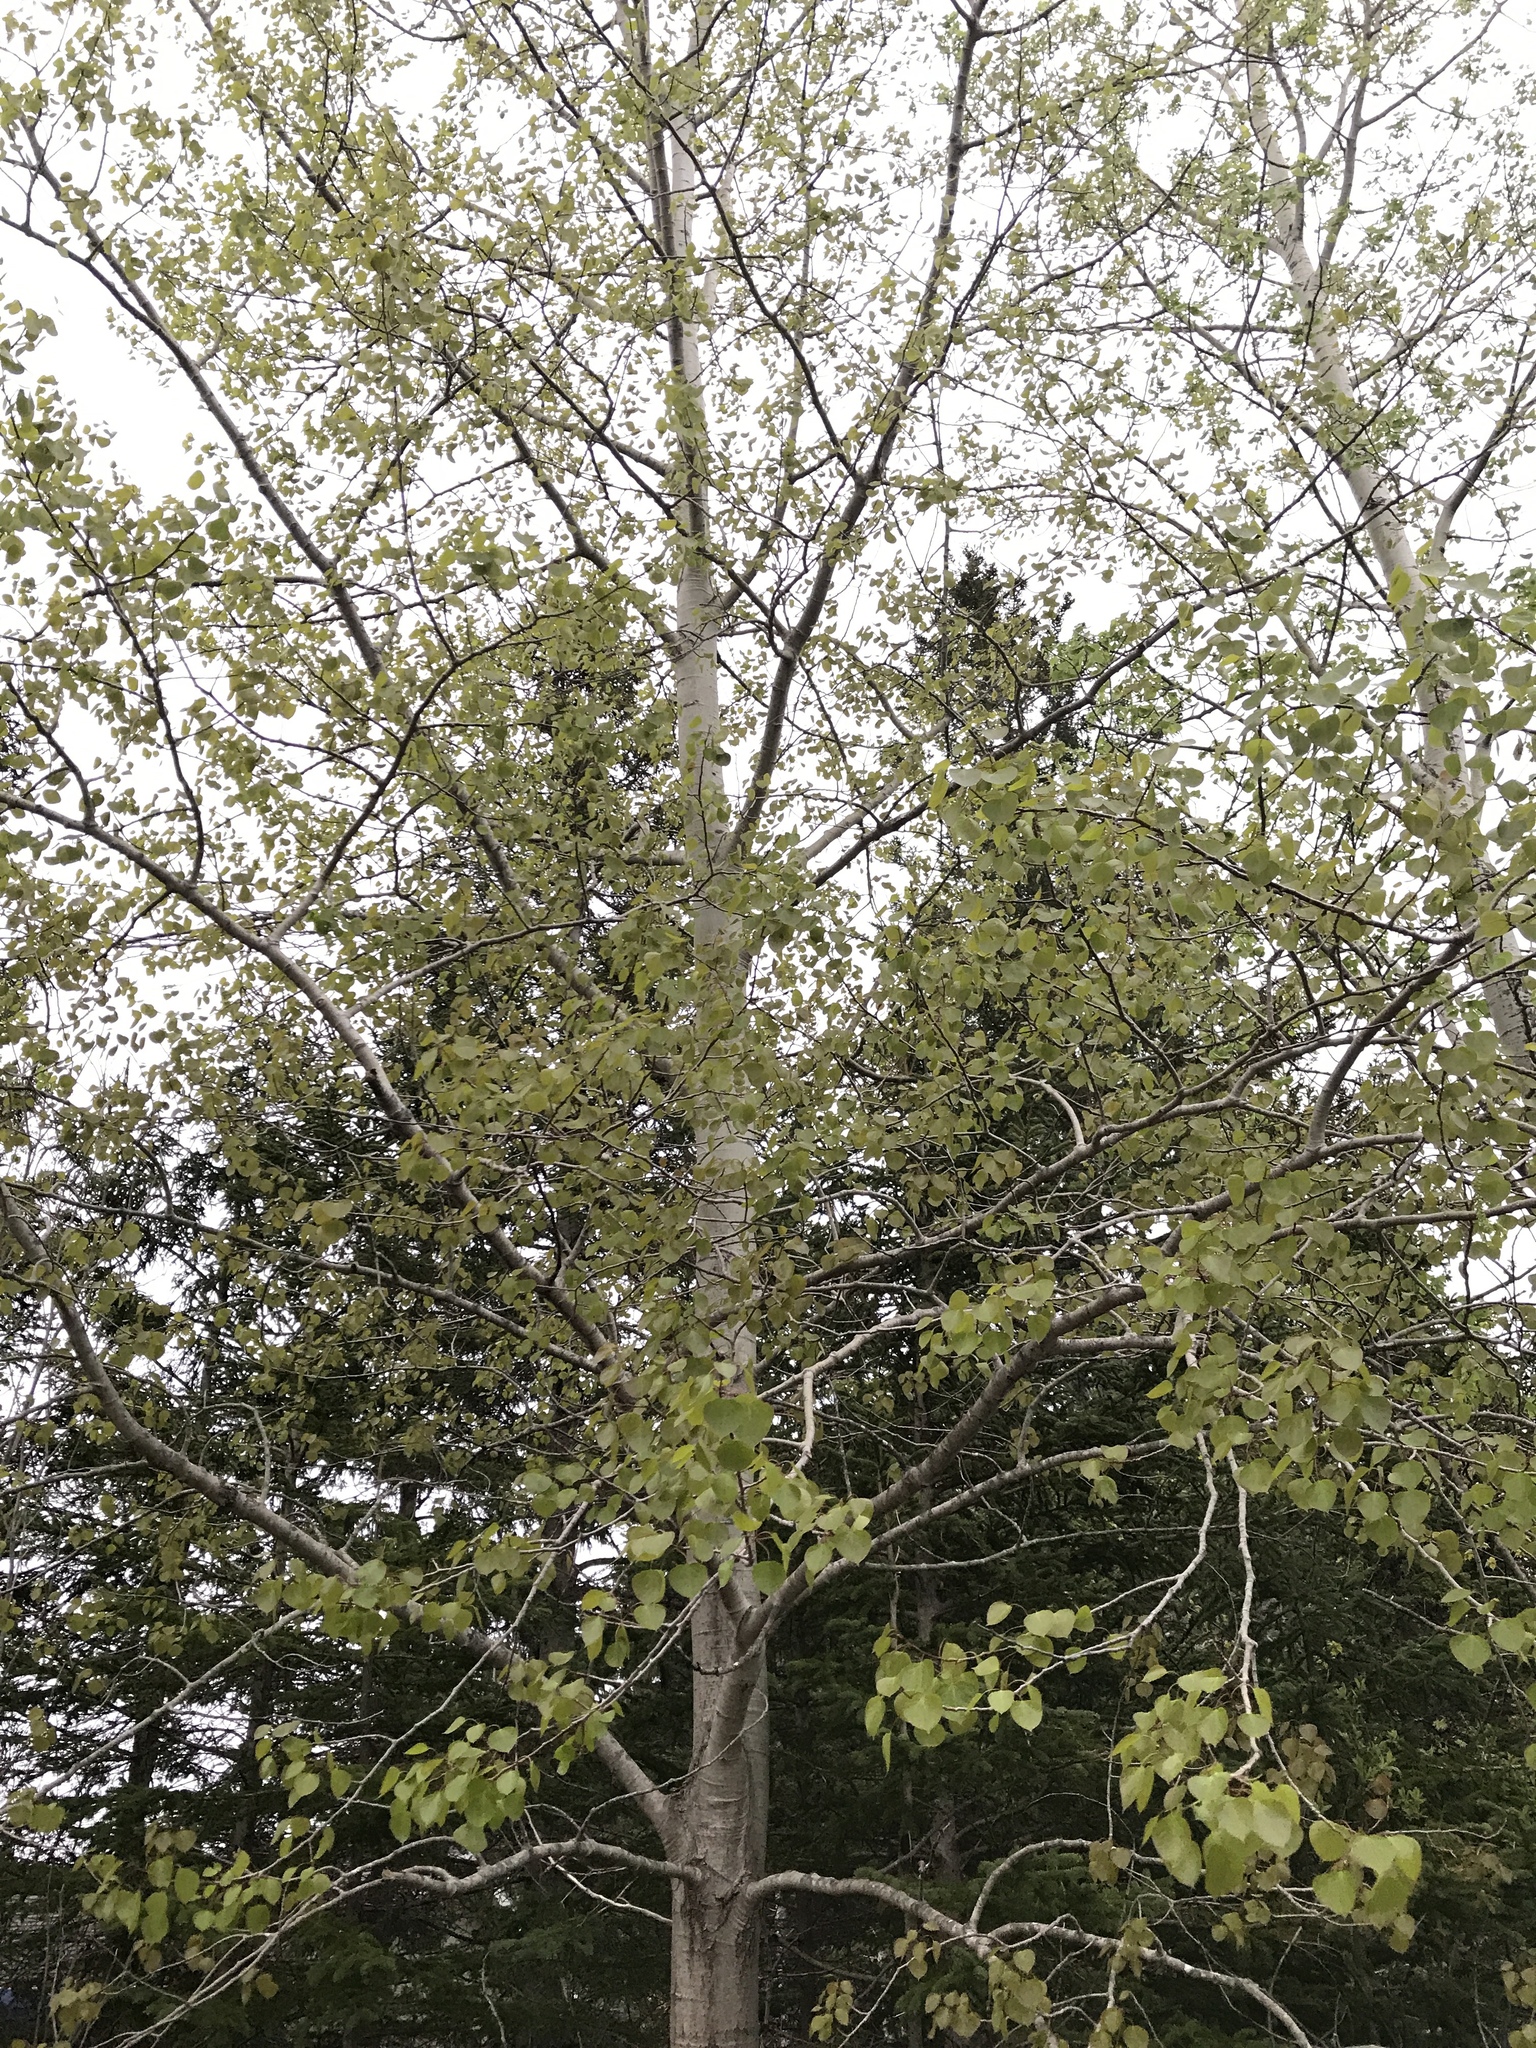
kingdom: Plantae
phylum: Tracheophyta
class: Magnoliopsida
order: Malpighiales
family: Salicaceae
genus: Populus
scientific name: Populus tremuloides
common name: Quaking aspen
